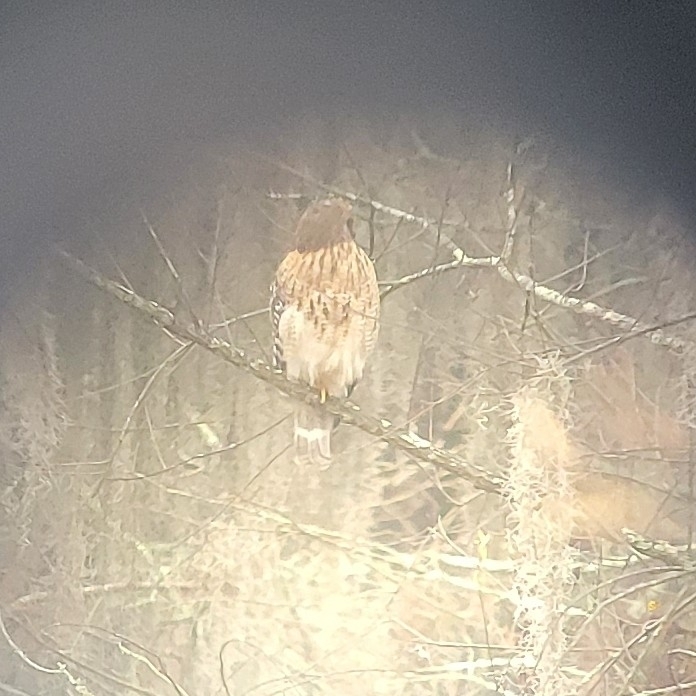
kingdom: Animalia
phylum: Chordata
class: Aves
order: Accipitriformes
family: Accipitridae
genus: Buteo
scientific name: Buteo lineatus
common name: Red-shouldered hawk
